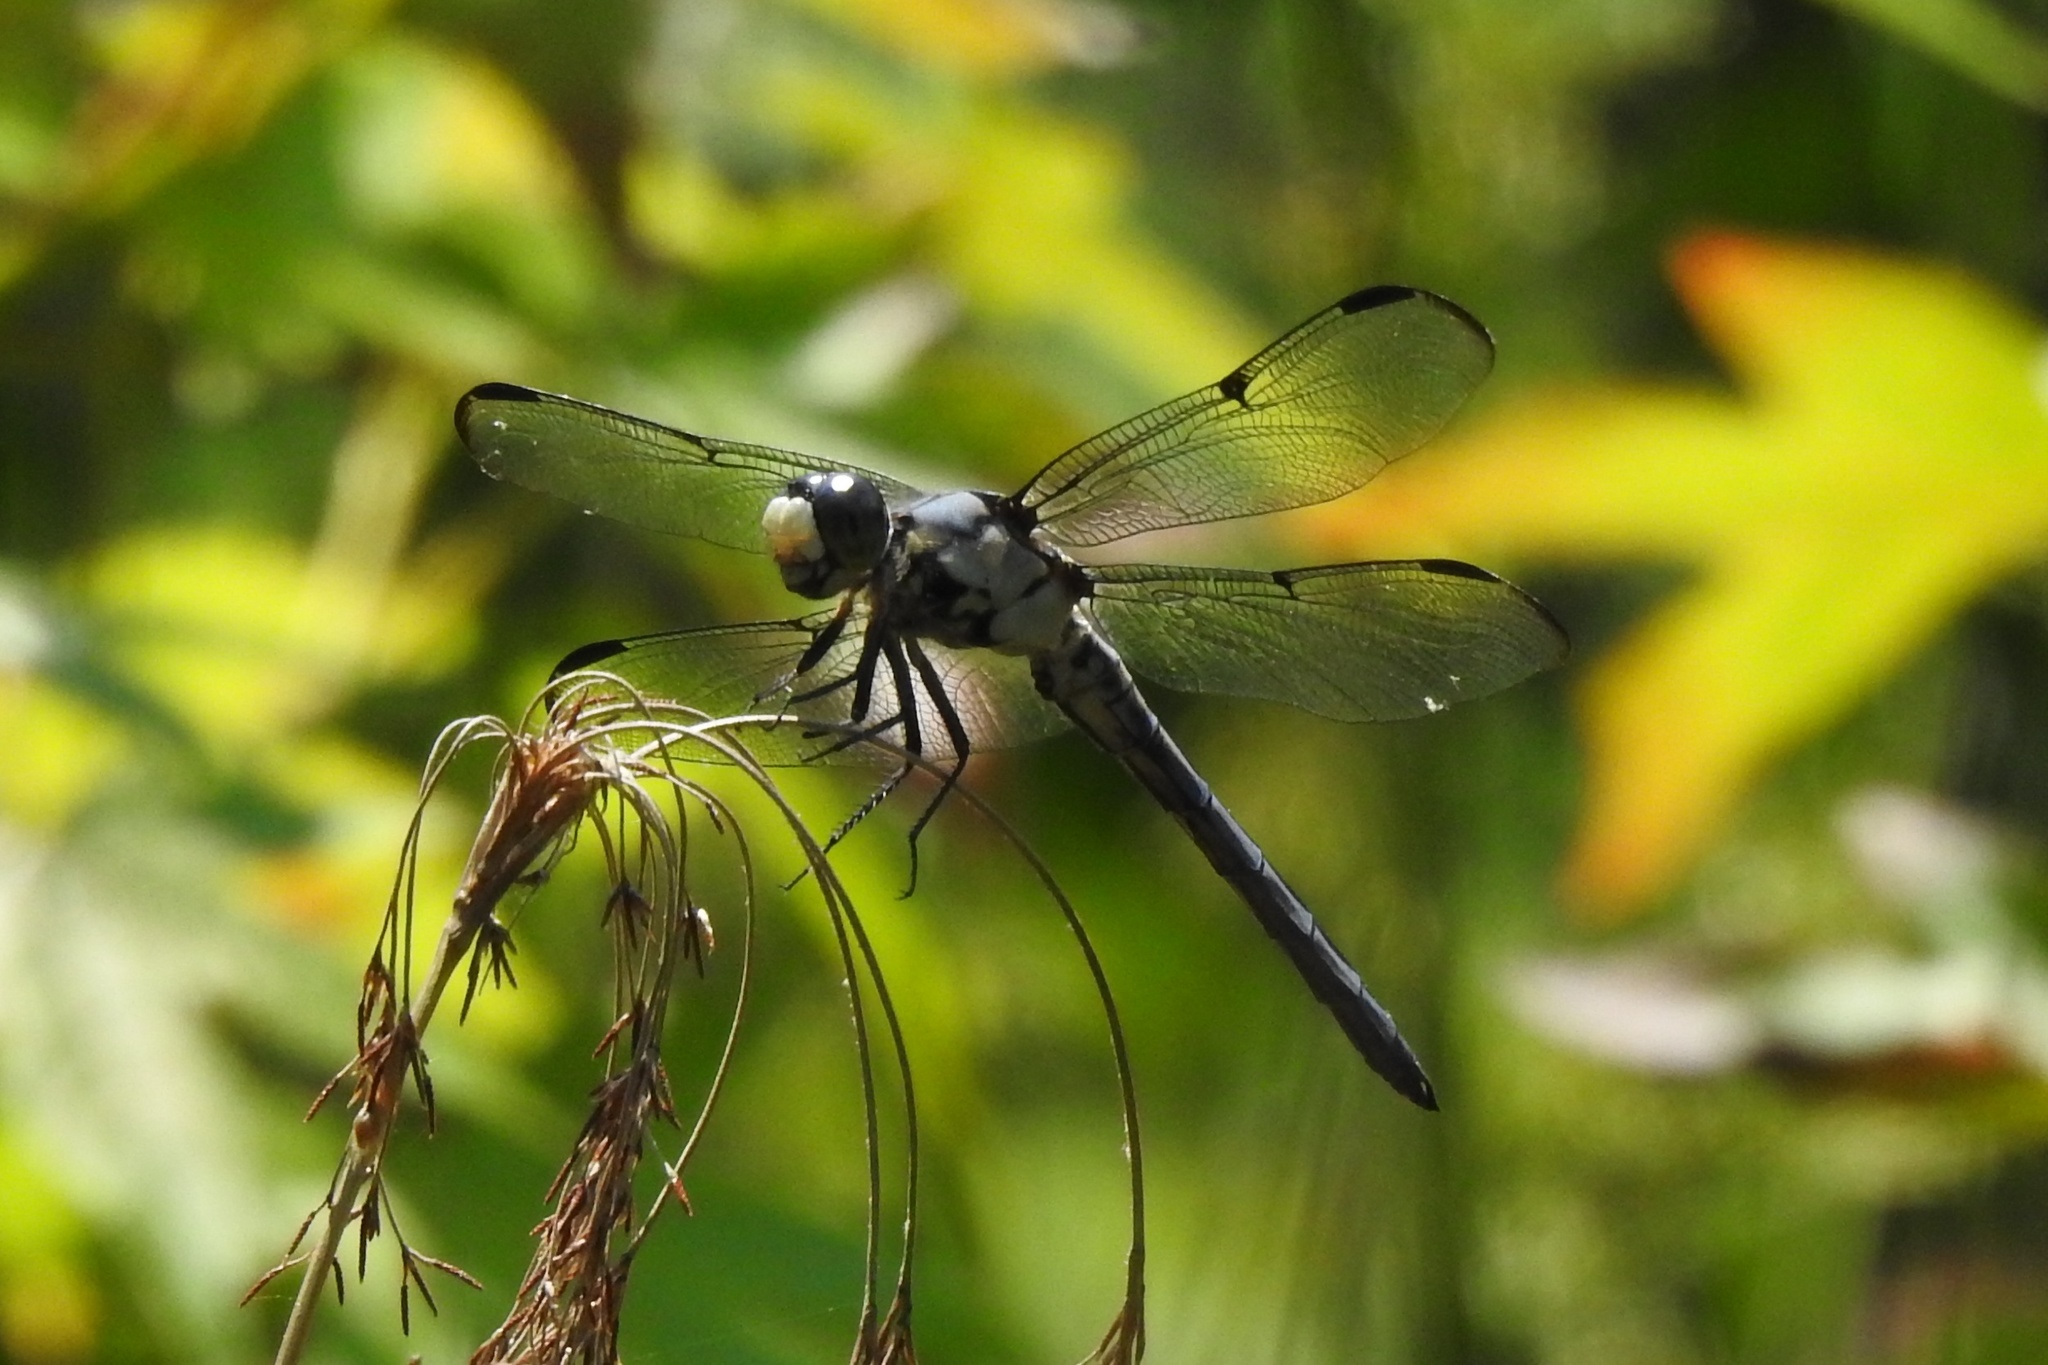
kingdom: Animalia
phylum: Arthropoda
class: Insecta
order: Odonata
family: Libellulidae
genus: Libellula
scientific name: Libellula vibrans
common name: Great blue skimmer
